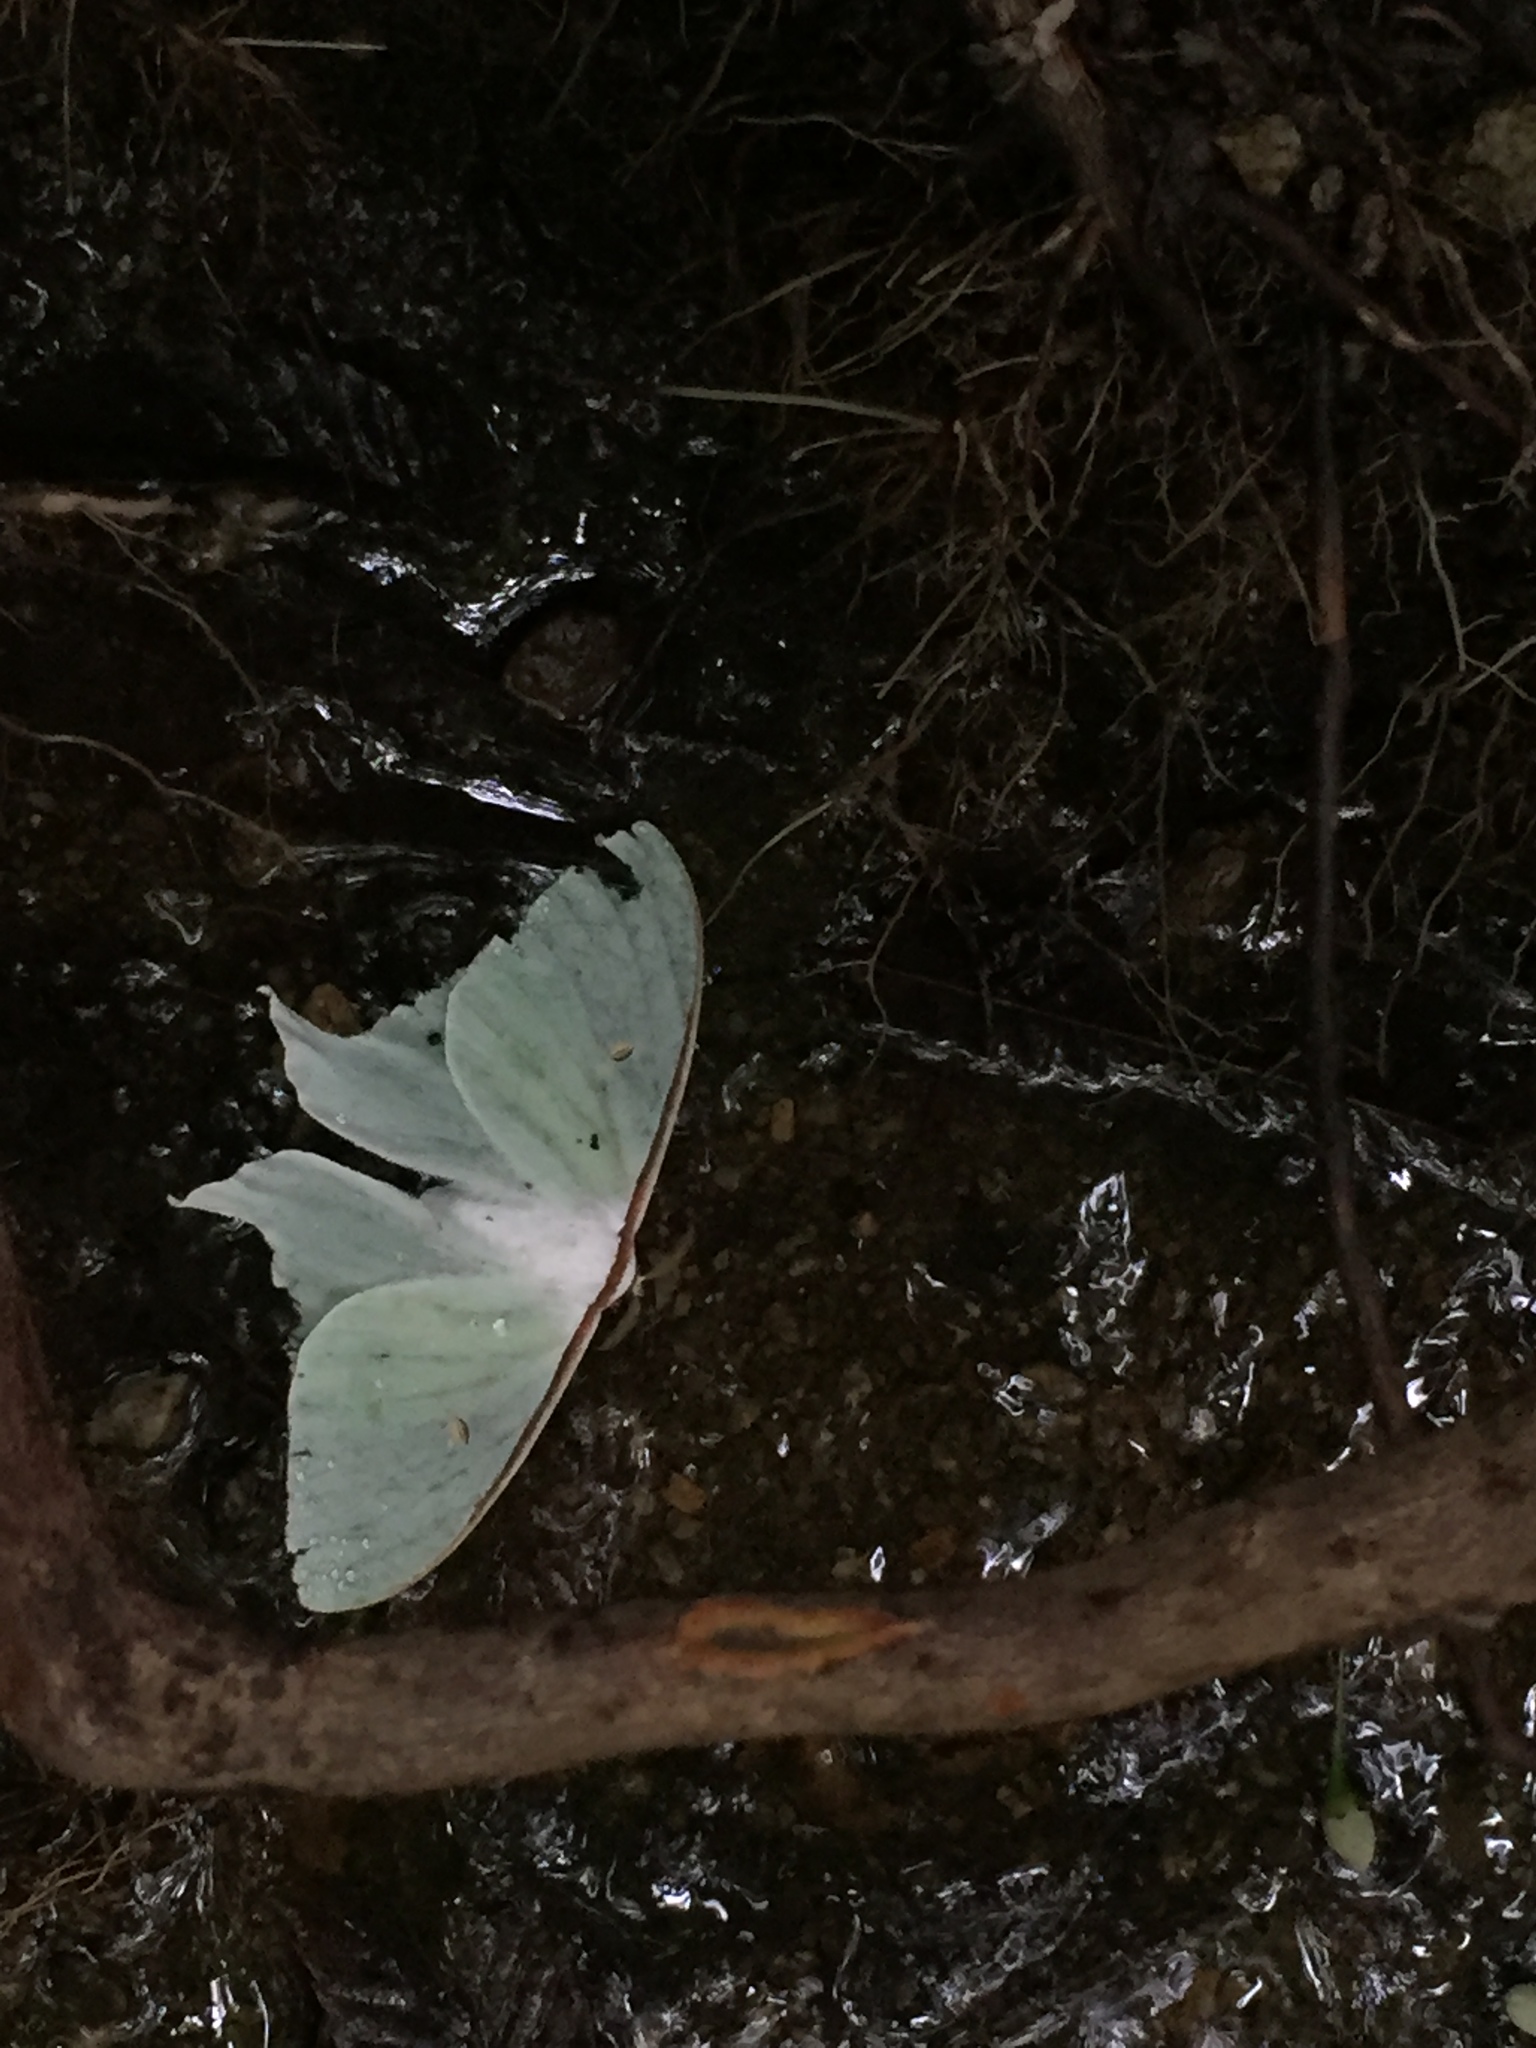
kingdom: Animalia
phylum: Arthropoda
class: Insecta
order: Lepidoptera
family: Saturniidae
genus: Actias
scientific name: Actias artemis
